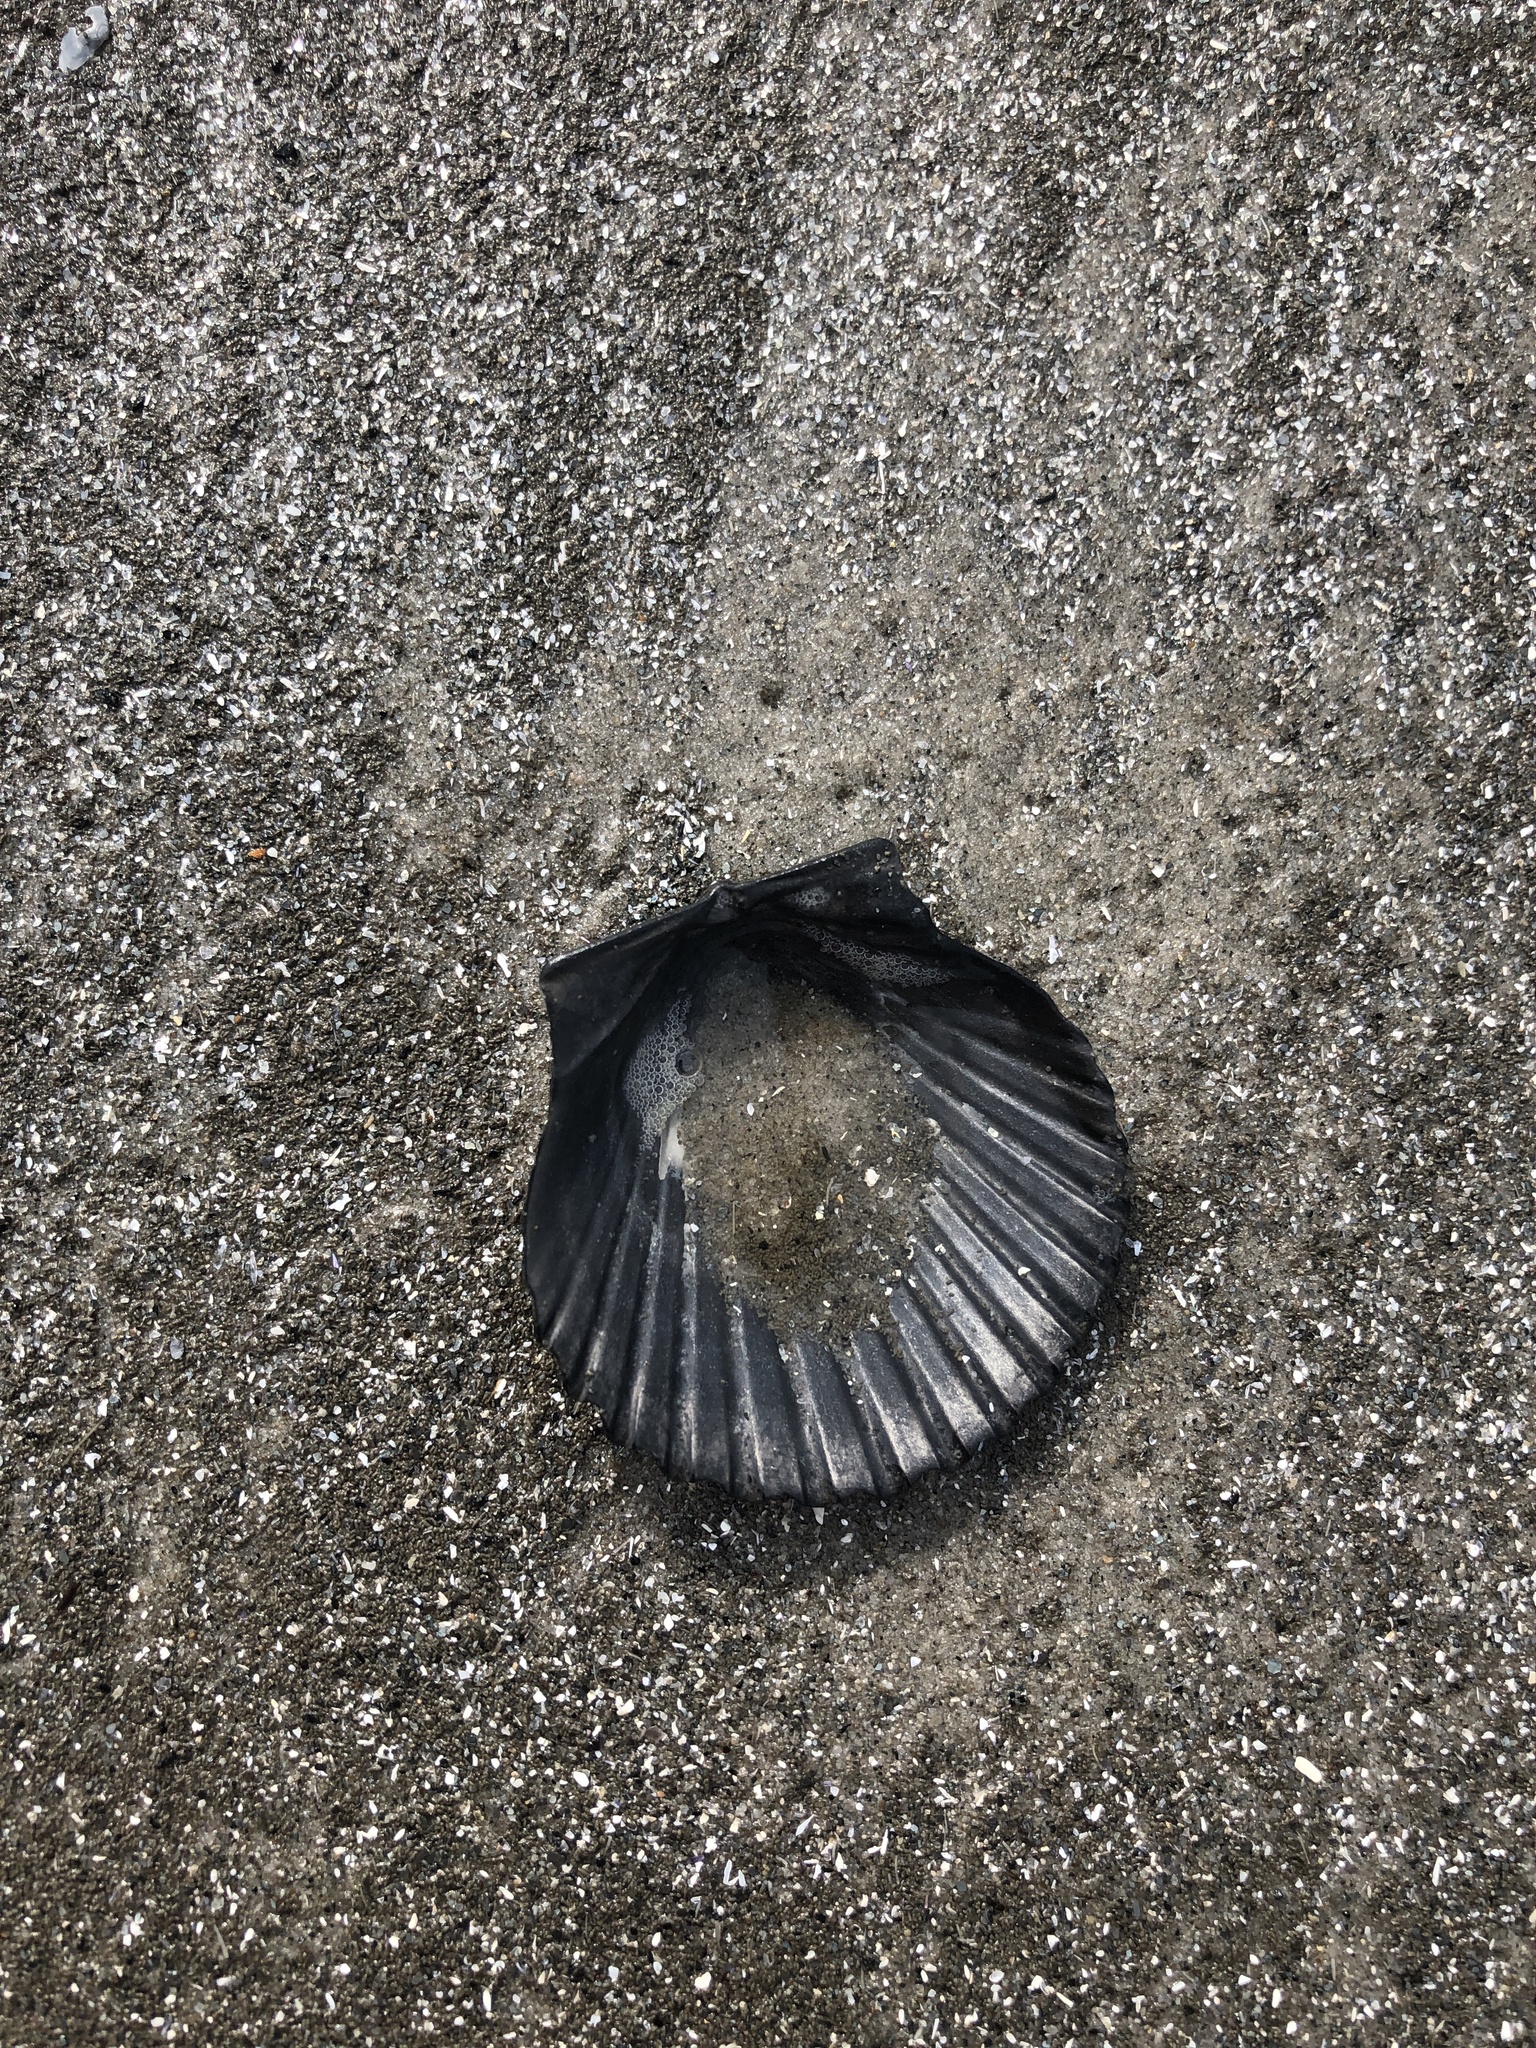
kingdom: Animalia
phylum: Mollusca
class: Bivalvia
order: Pectinida
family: Pectinidae
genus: Argopecten
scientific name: Argopecten irradians
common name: Atlantic bay scallop
